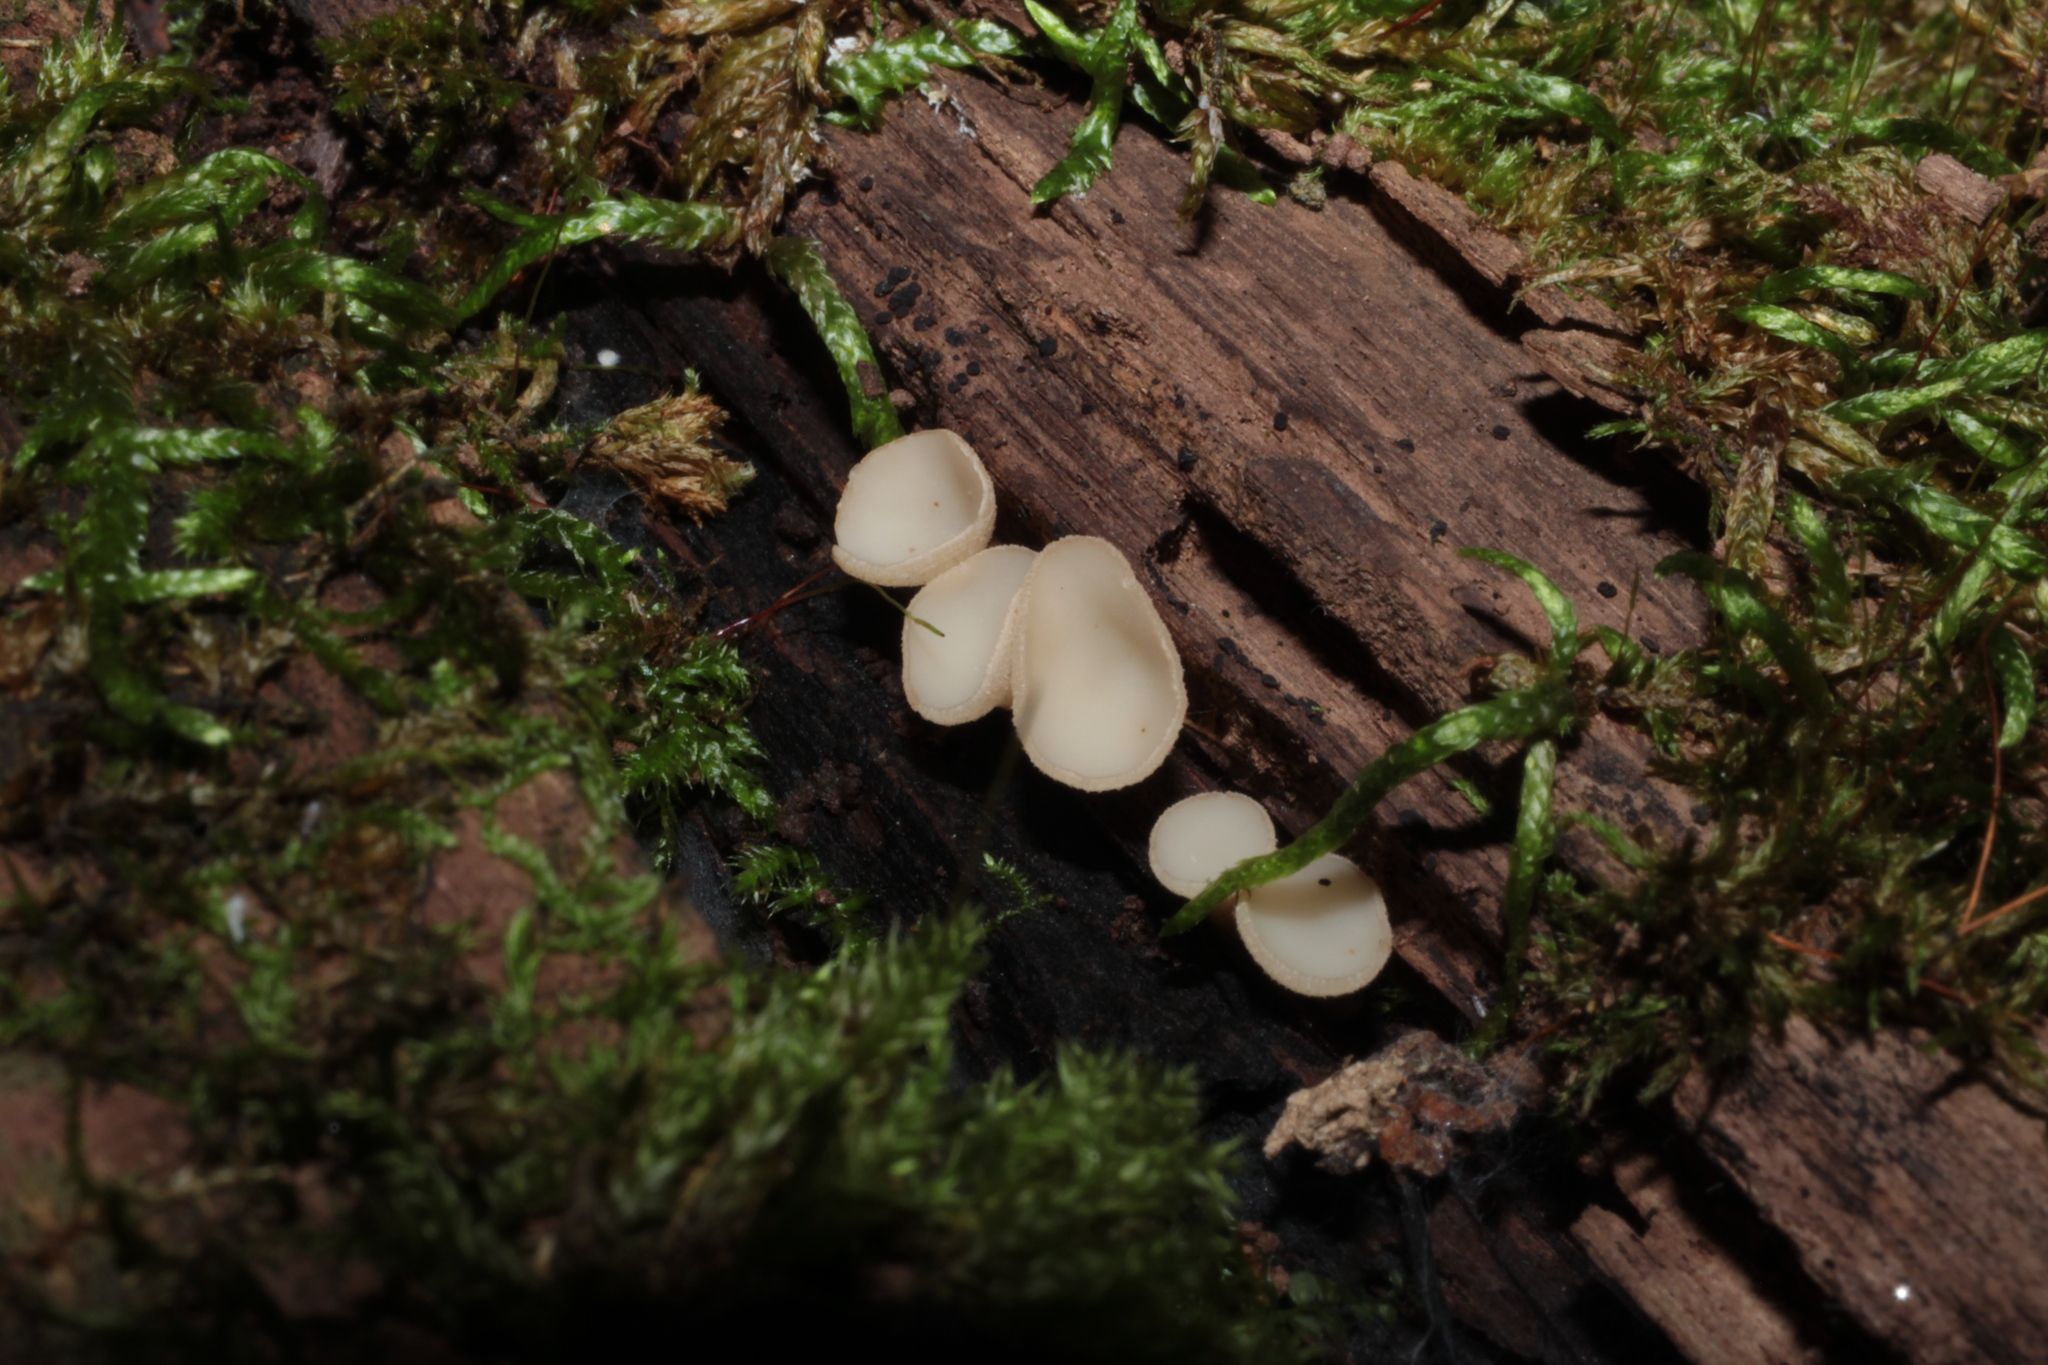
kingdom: Fungi
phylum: Ascomycota
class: Leotiomycetes
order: Helotiales
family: Helotiaceae
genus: Tatraea
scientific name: Tatraea macrospora
